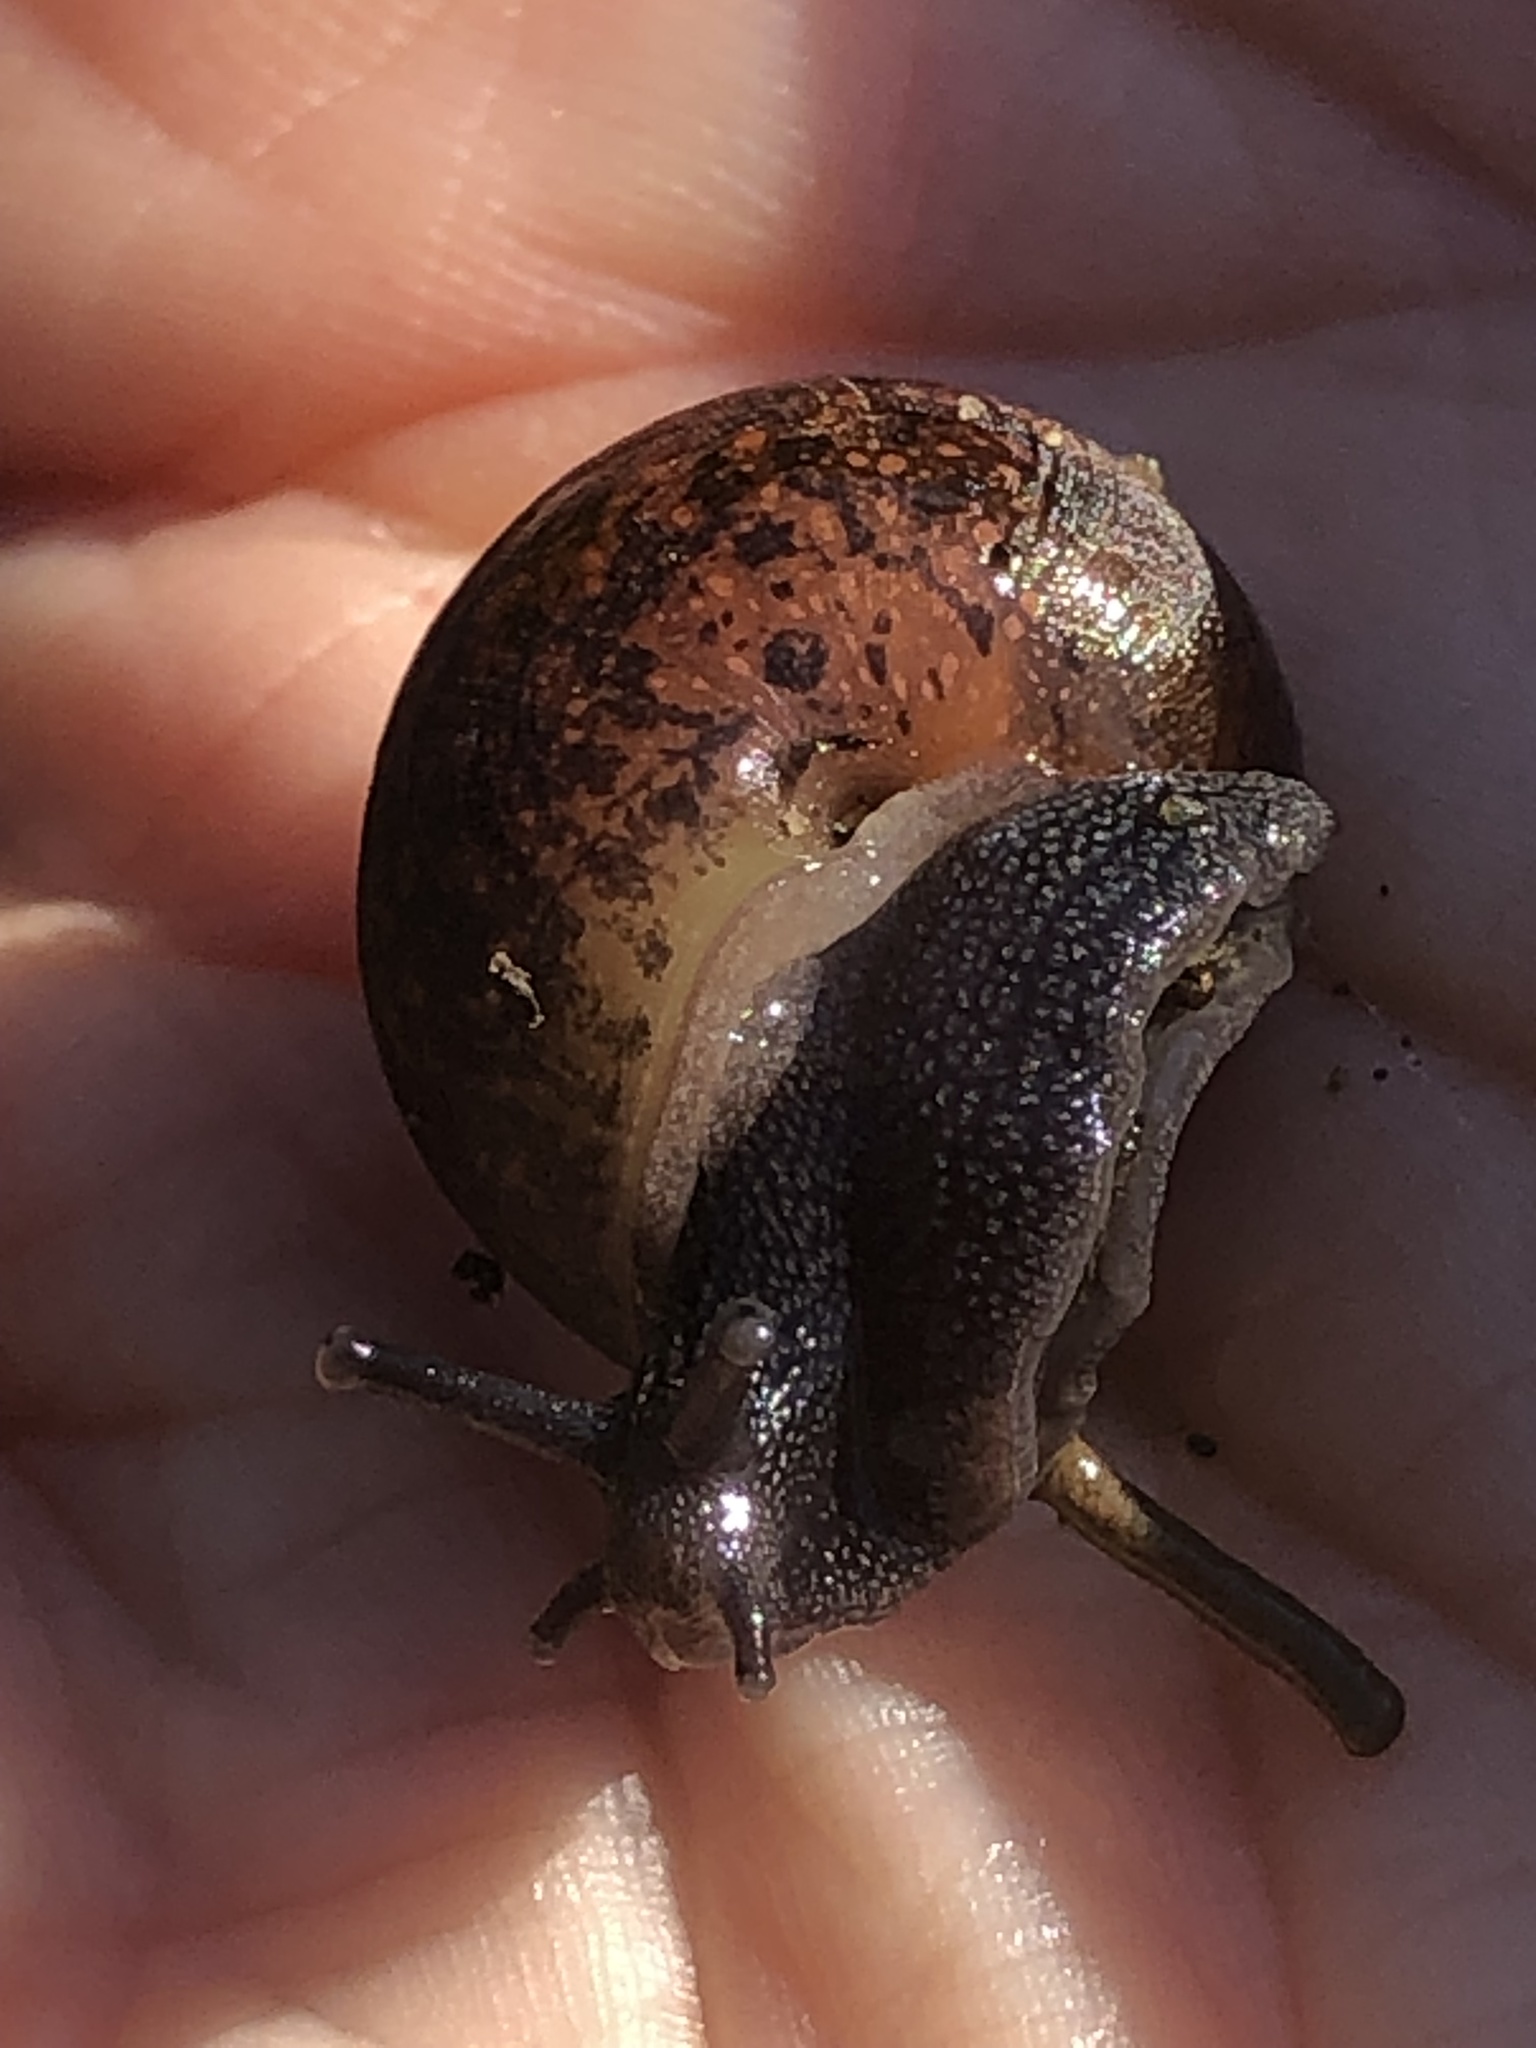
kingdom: Animalia
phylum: Mollusca
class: Gastropoda
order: Stylommatophora
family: Xanthonychidae
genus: Helminthoglypta
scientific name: Helminthoglypta nickliniana
